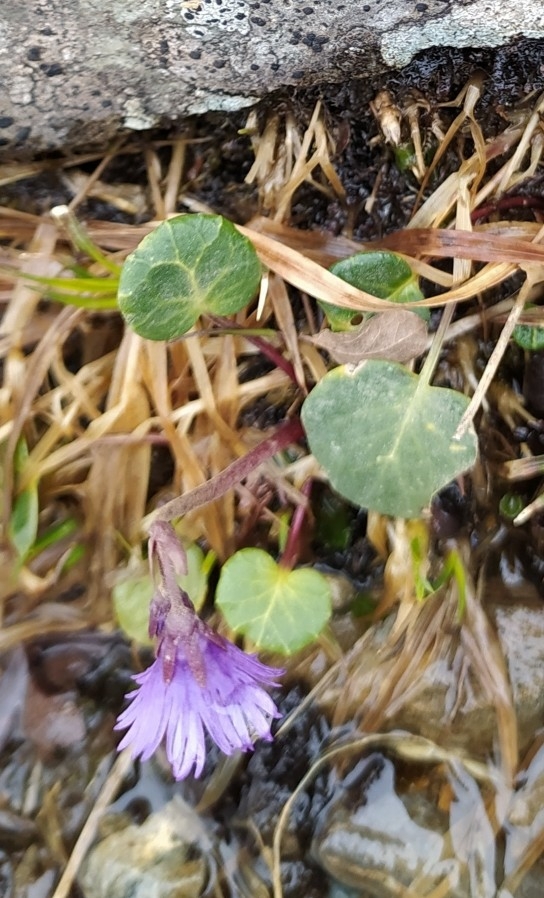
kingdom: Plantae
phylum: Tracheophyta
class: Magnoliopsida
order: Ericales
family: Primulaceae
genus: Soldanella
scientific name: Soldanella alpina
